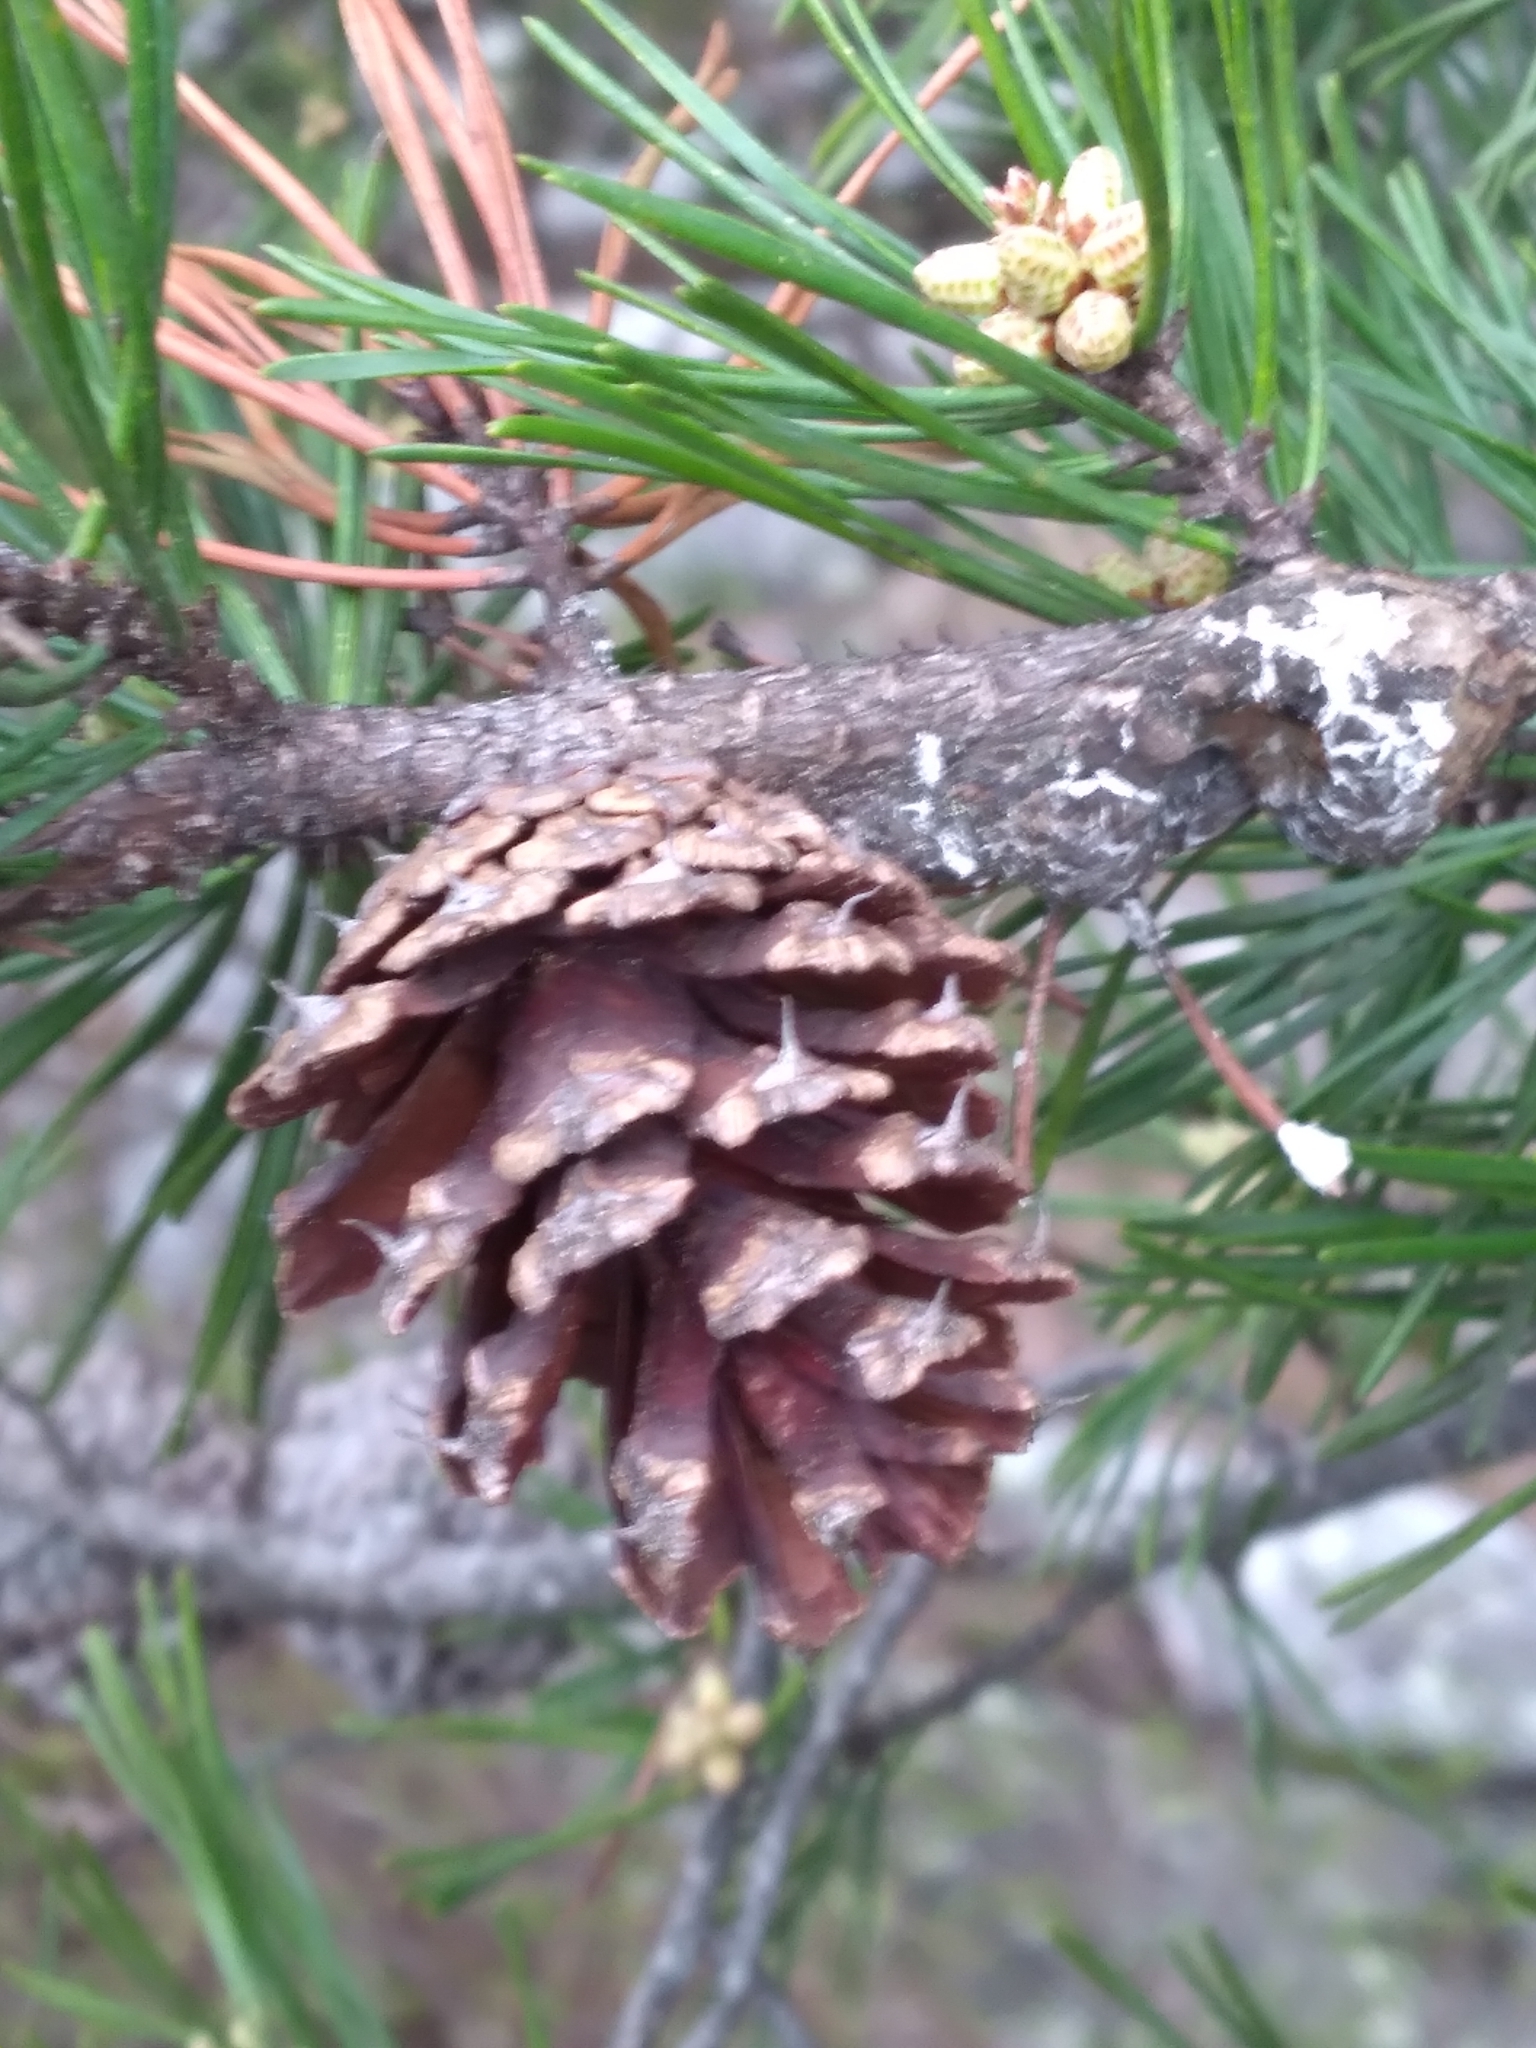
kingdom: Plantae
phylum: Tracheophyta
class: Pinopsida
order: Pinales
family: Pinaceae
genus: Pinus
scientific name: Pinus virginiana
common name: Scrub pine
